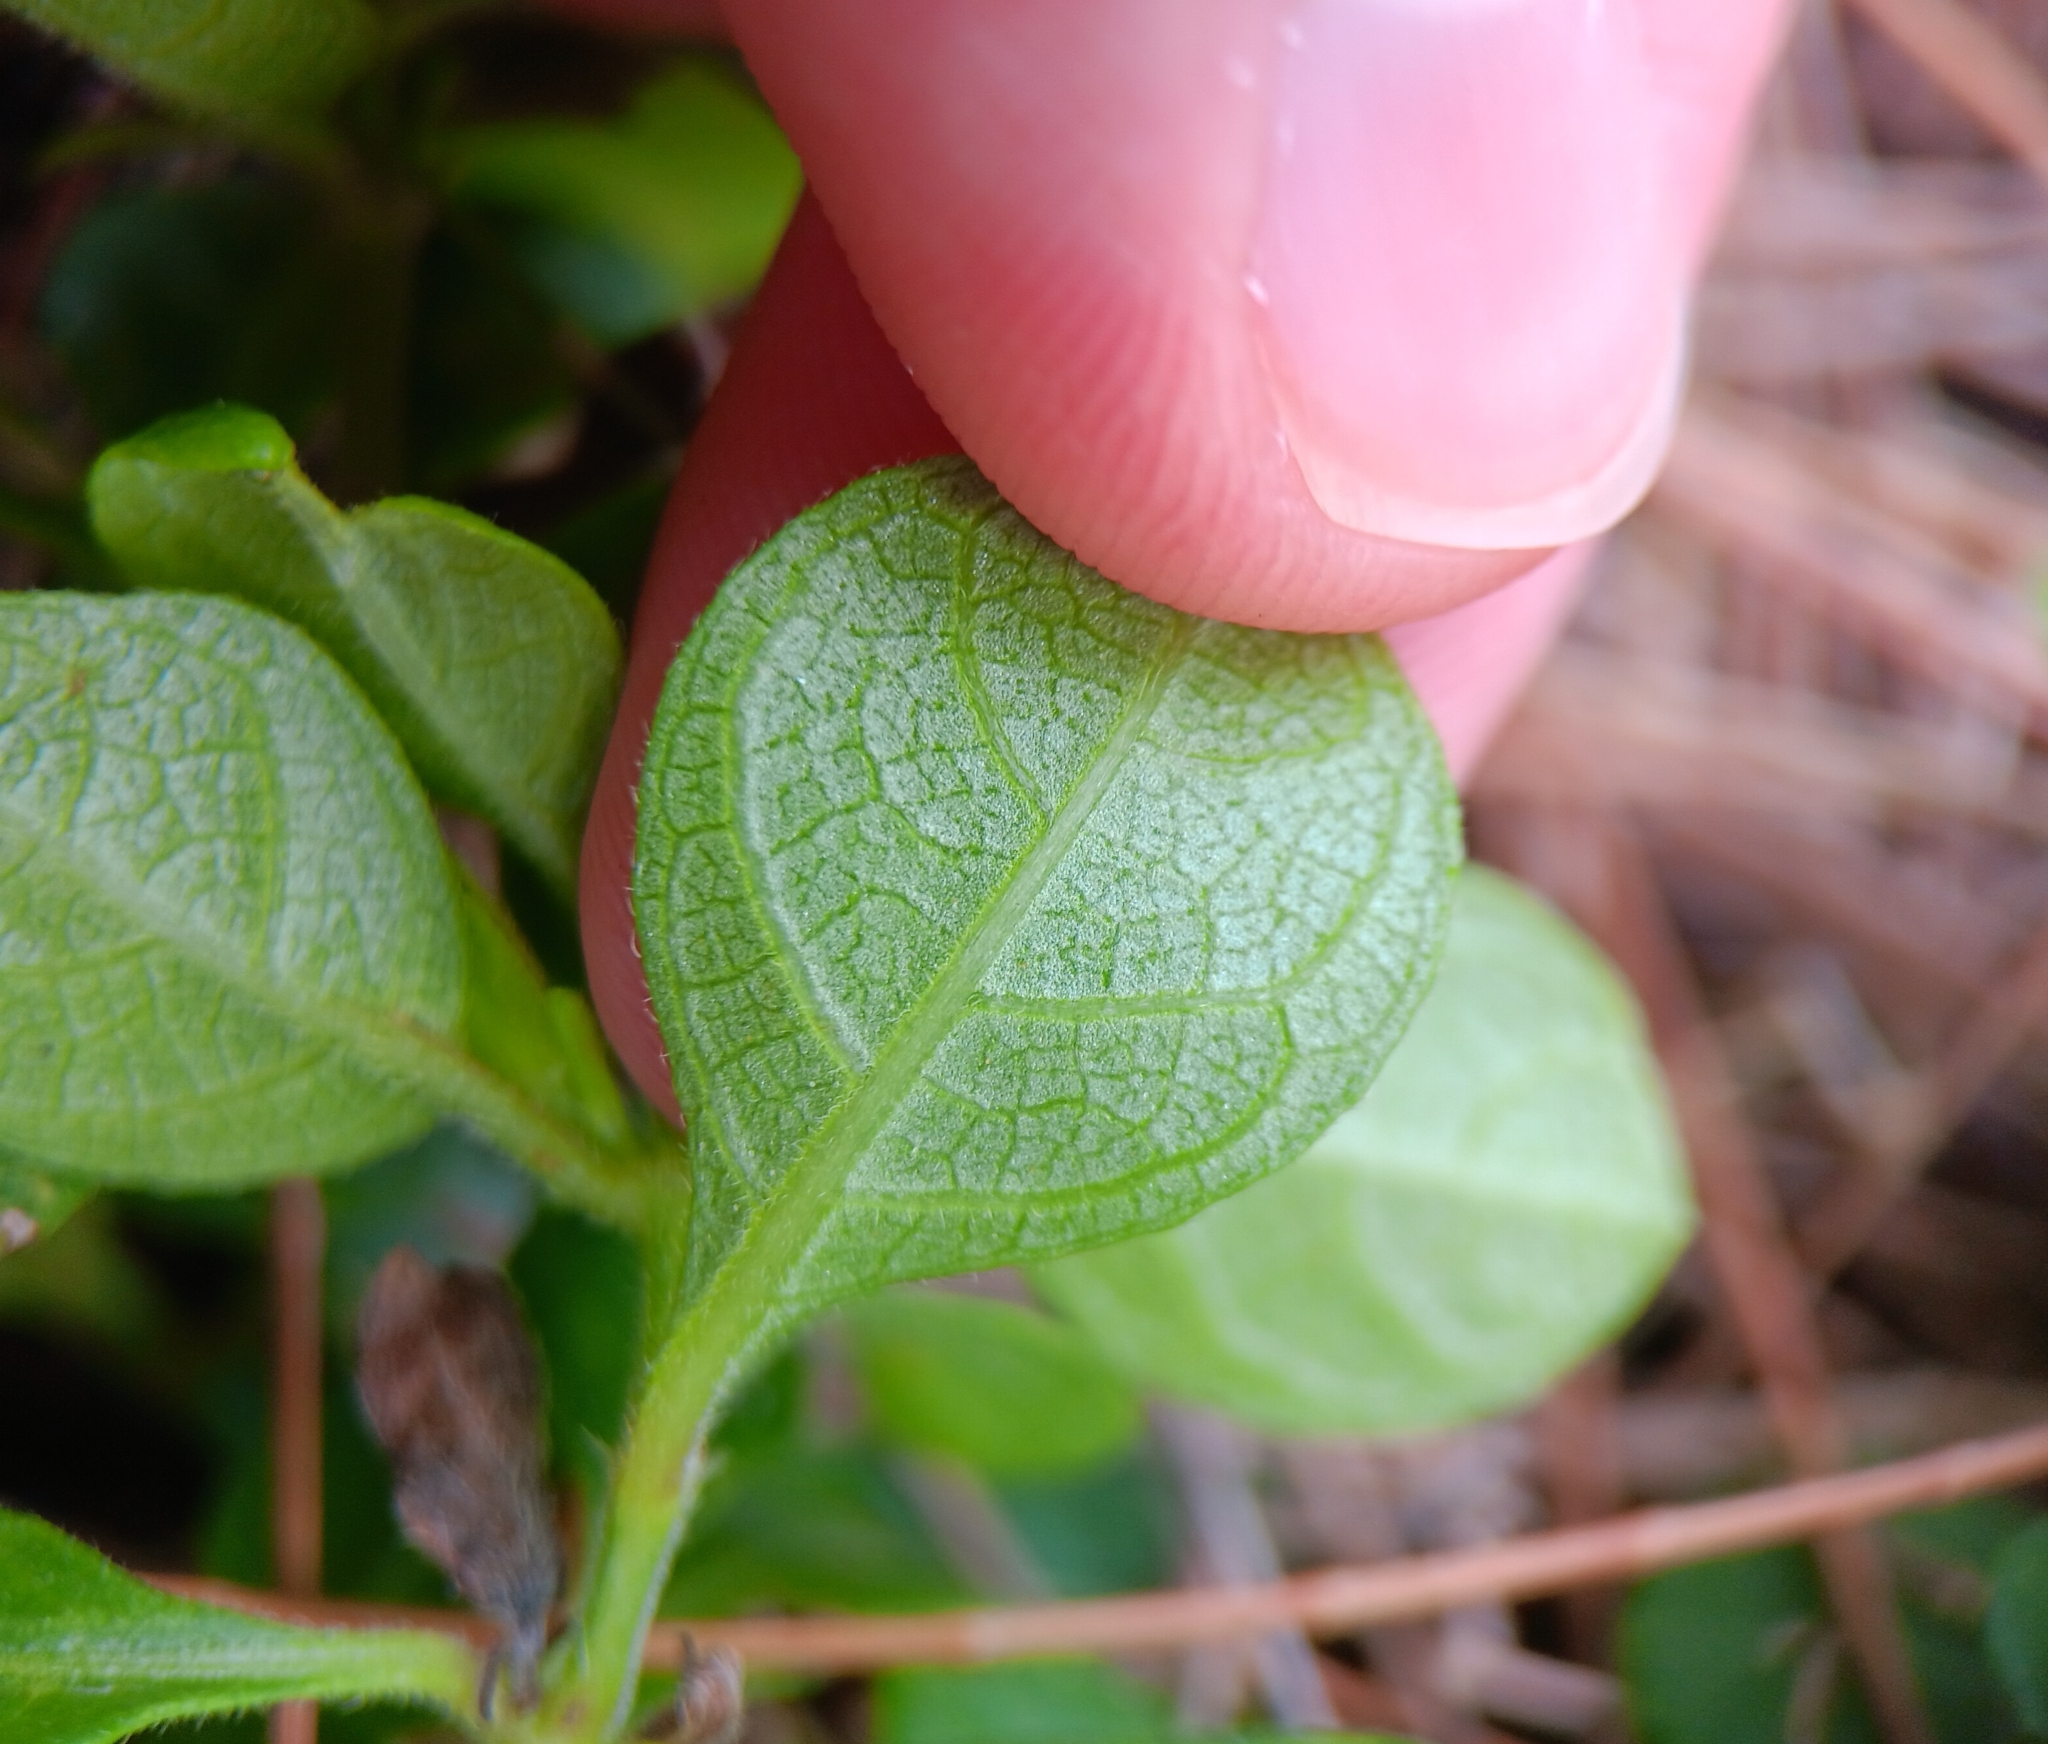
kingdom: Plantae
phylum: Tracheophyta
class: Magnoliopsida
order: Lamiales
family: Acanthaceae
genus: Barleria
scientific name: Barleria repens
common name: Pink-ruellia
